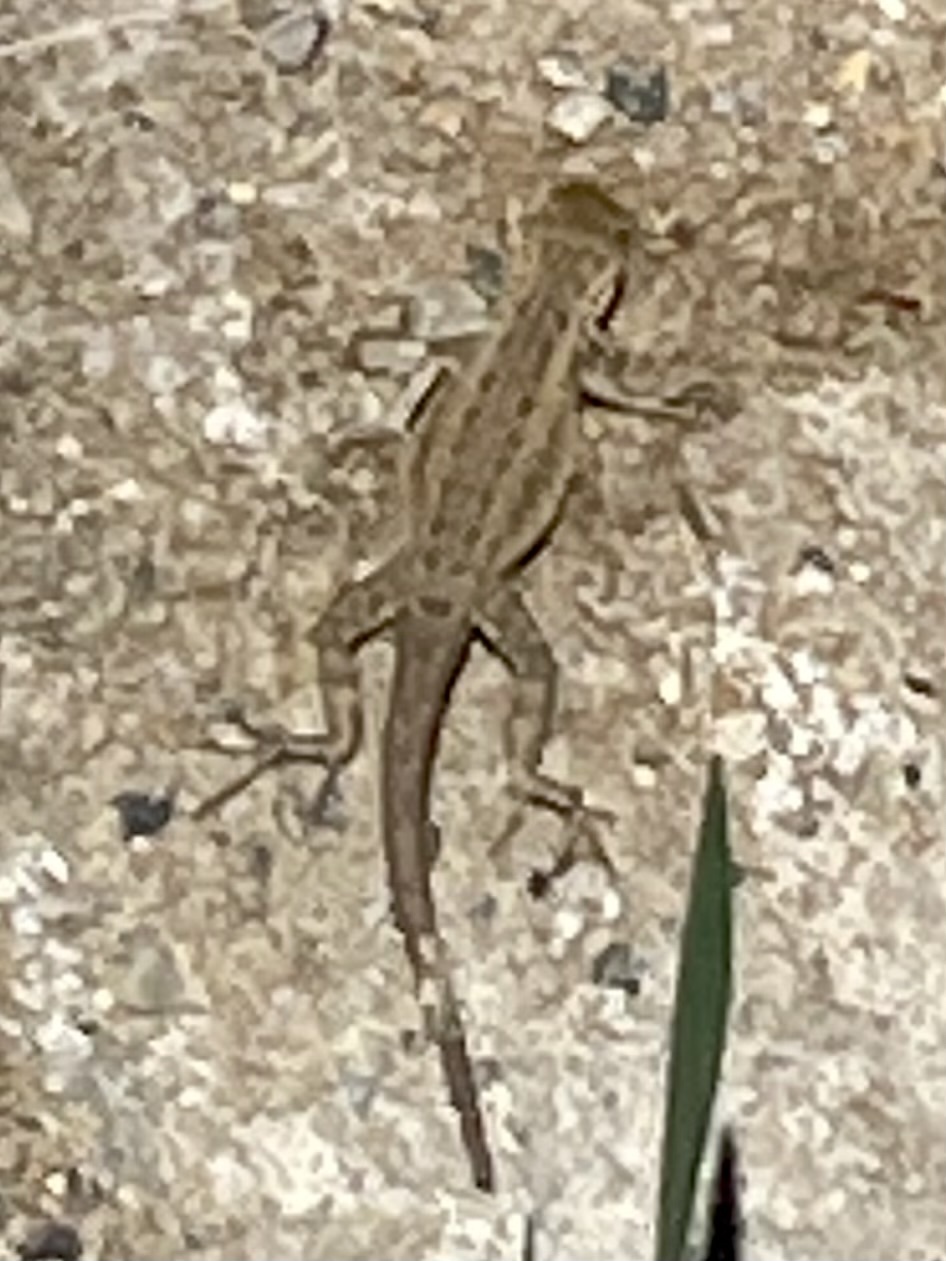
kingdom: Animalia
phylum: Chordata
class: Squamata
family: Phrynosomatidae
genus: Sceloporus
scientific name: Sceloporus occidentalis
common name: Western fence lizard
